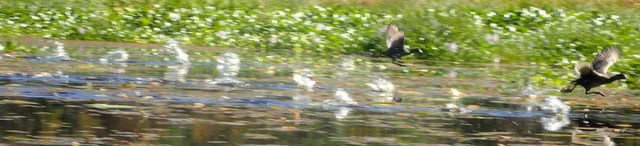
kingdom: Animalia
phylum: Chordata
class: Aves
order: Gruiformes
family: Rallidae
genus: Fulica
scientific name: Fulica americana
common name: American coot
